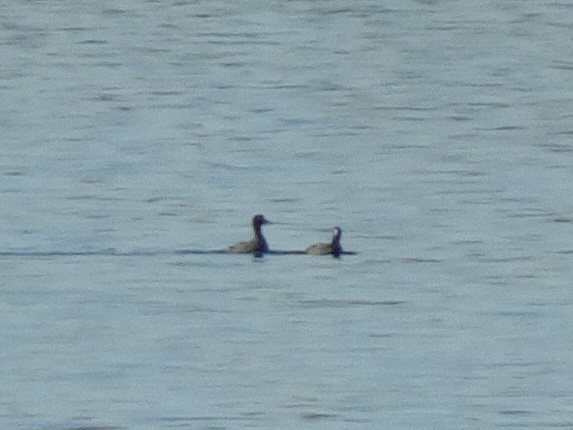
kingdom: Animalia
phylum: Chordata
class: Aves
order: Gruiformes
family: Rallidae
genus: Fulica
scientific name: Fulica americana
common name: American coot
